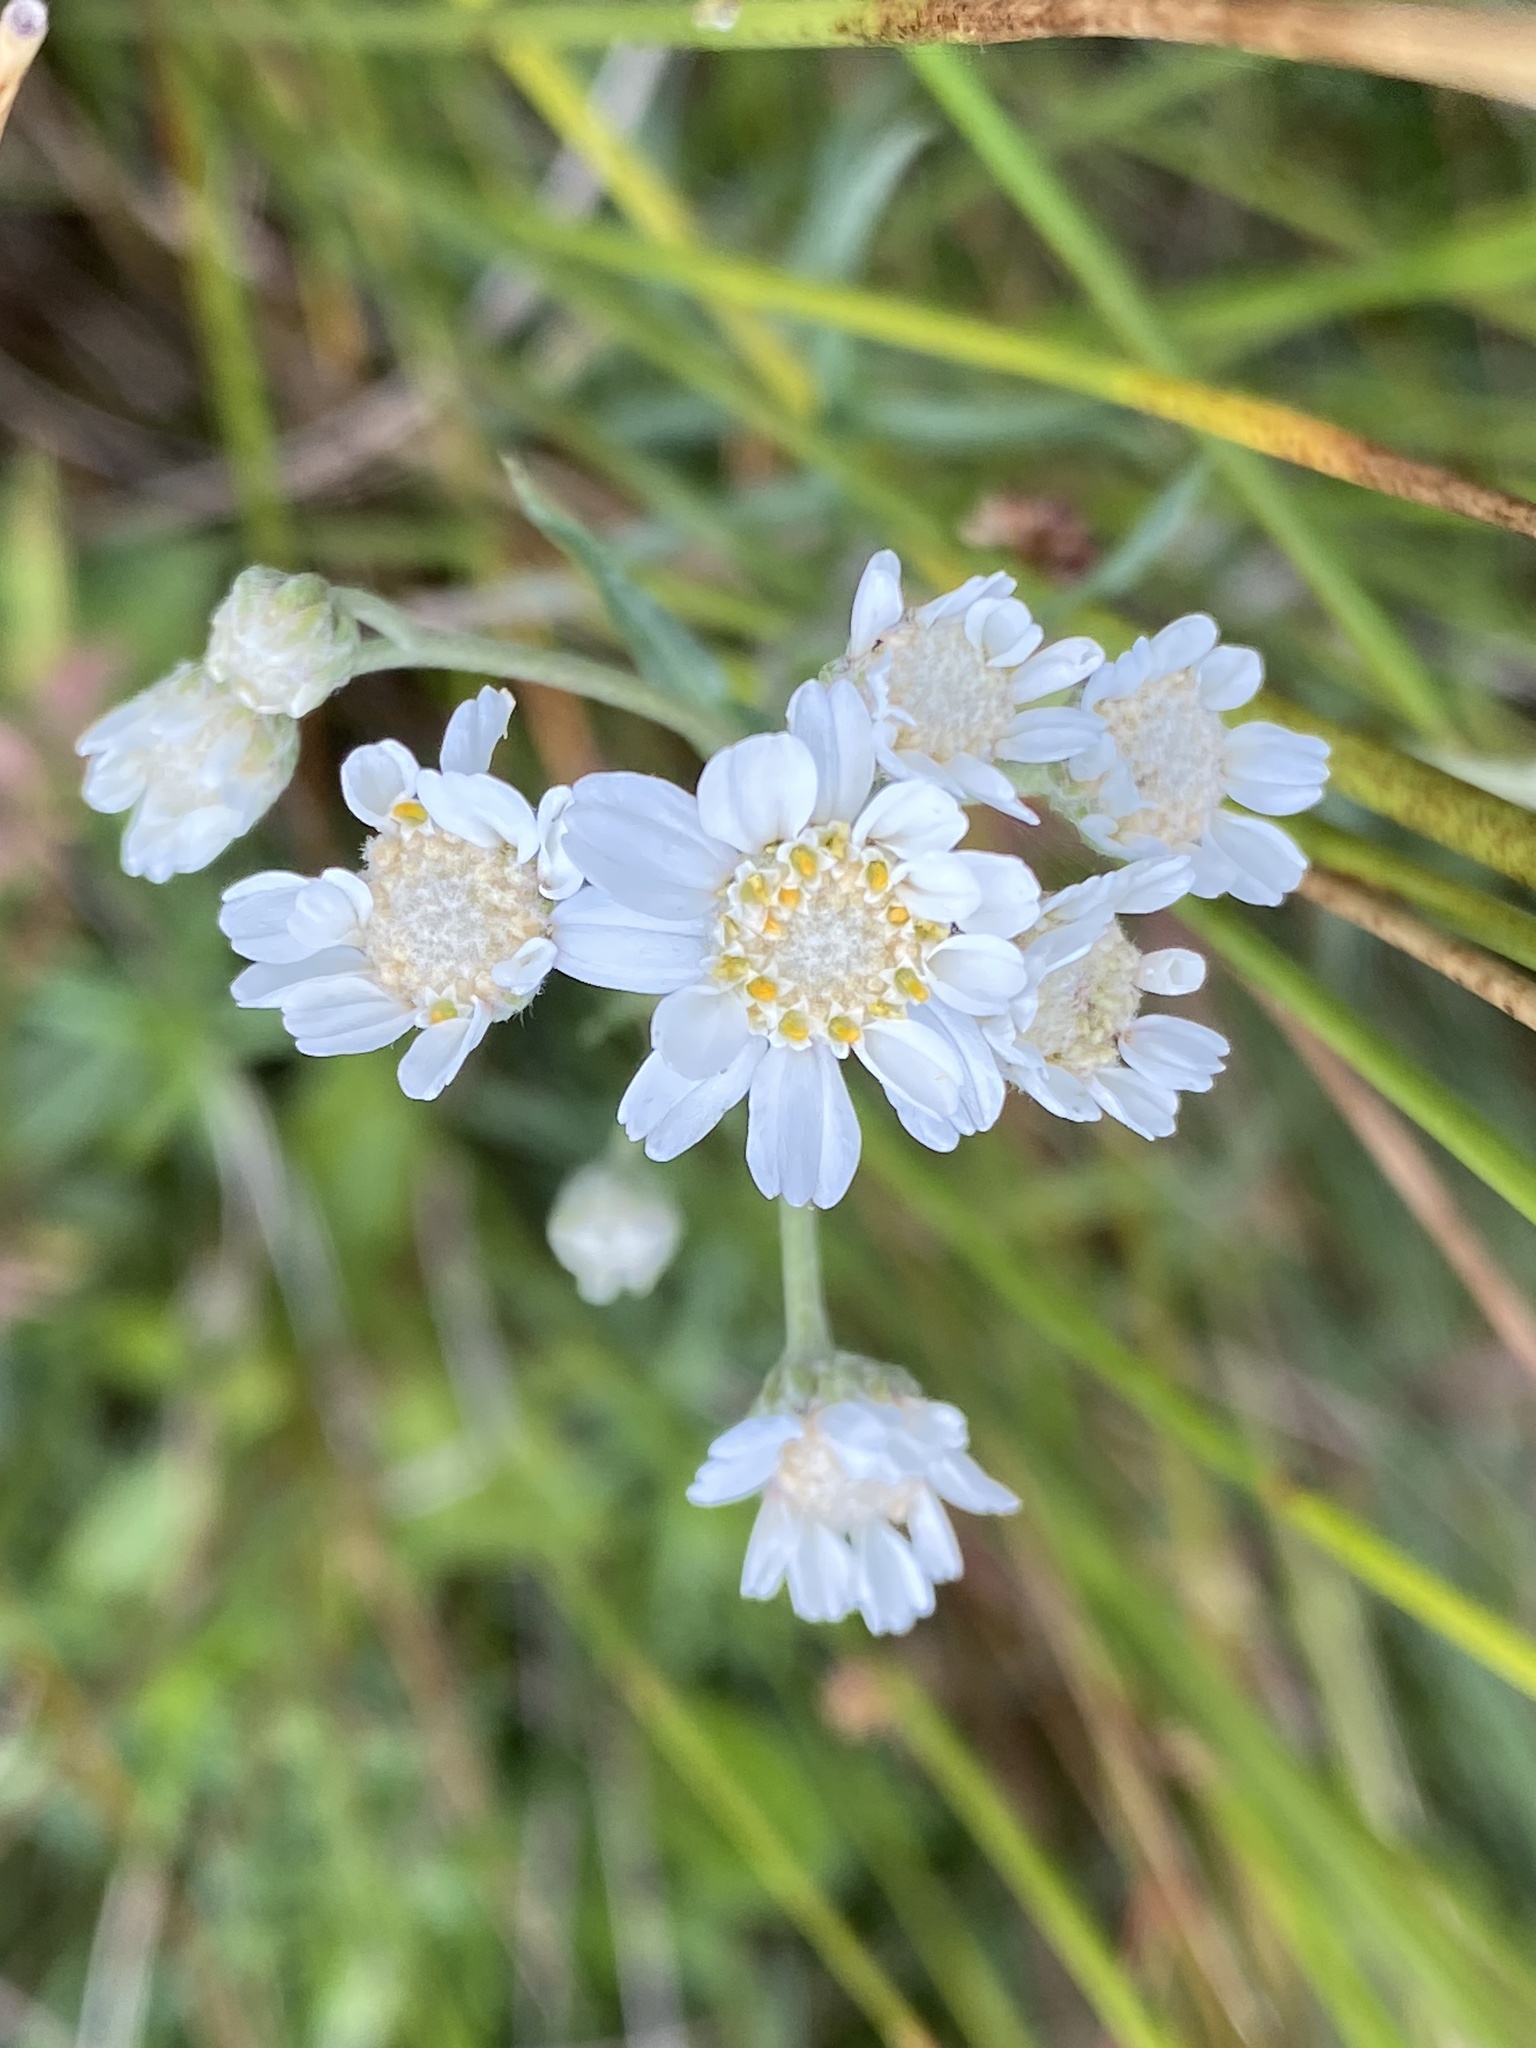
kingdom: Plantae
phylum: Tracheophyta
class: Magnoliopsida
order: Asterales
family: Asteraceae
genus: Achillea
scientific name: Achillea ptarmica
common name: Sneezeweed
